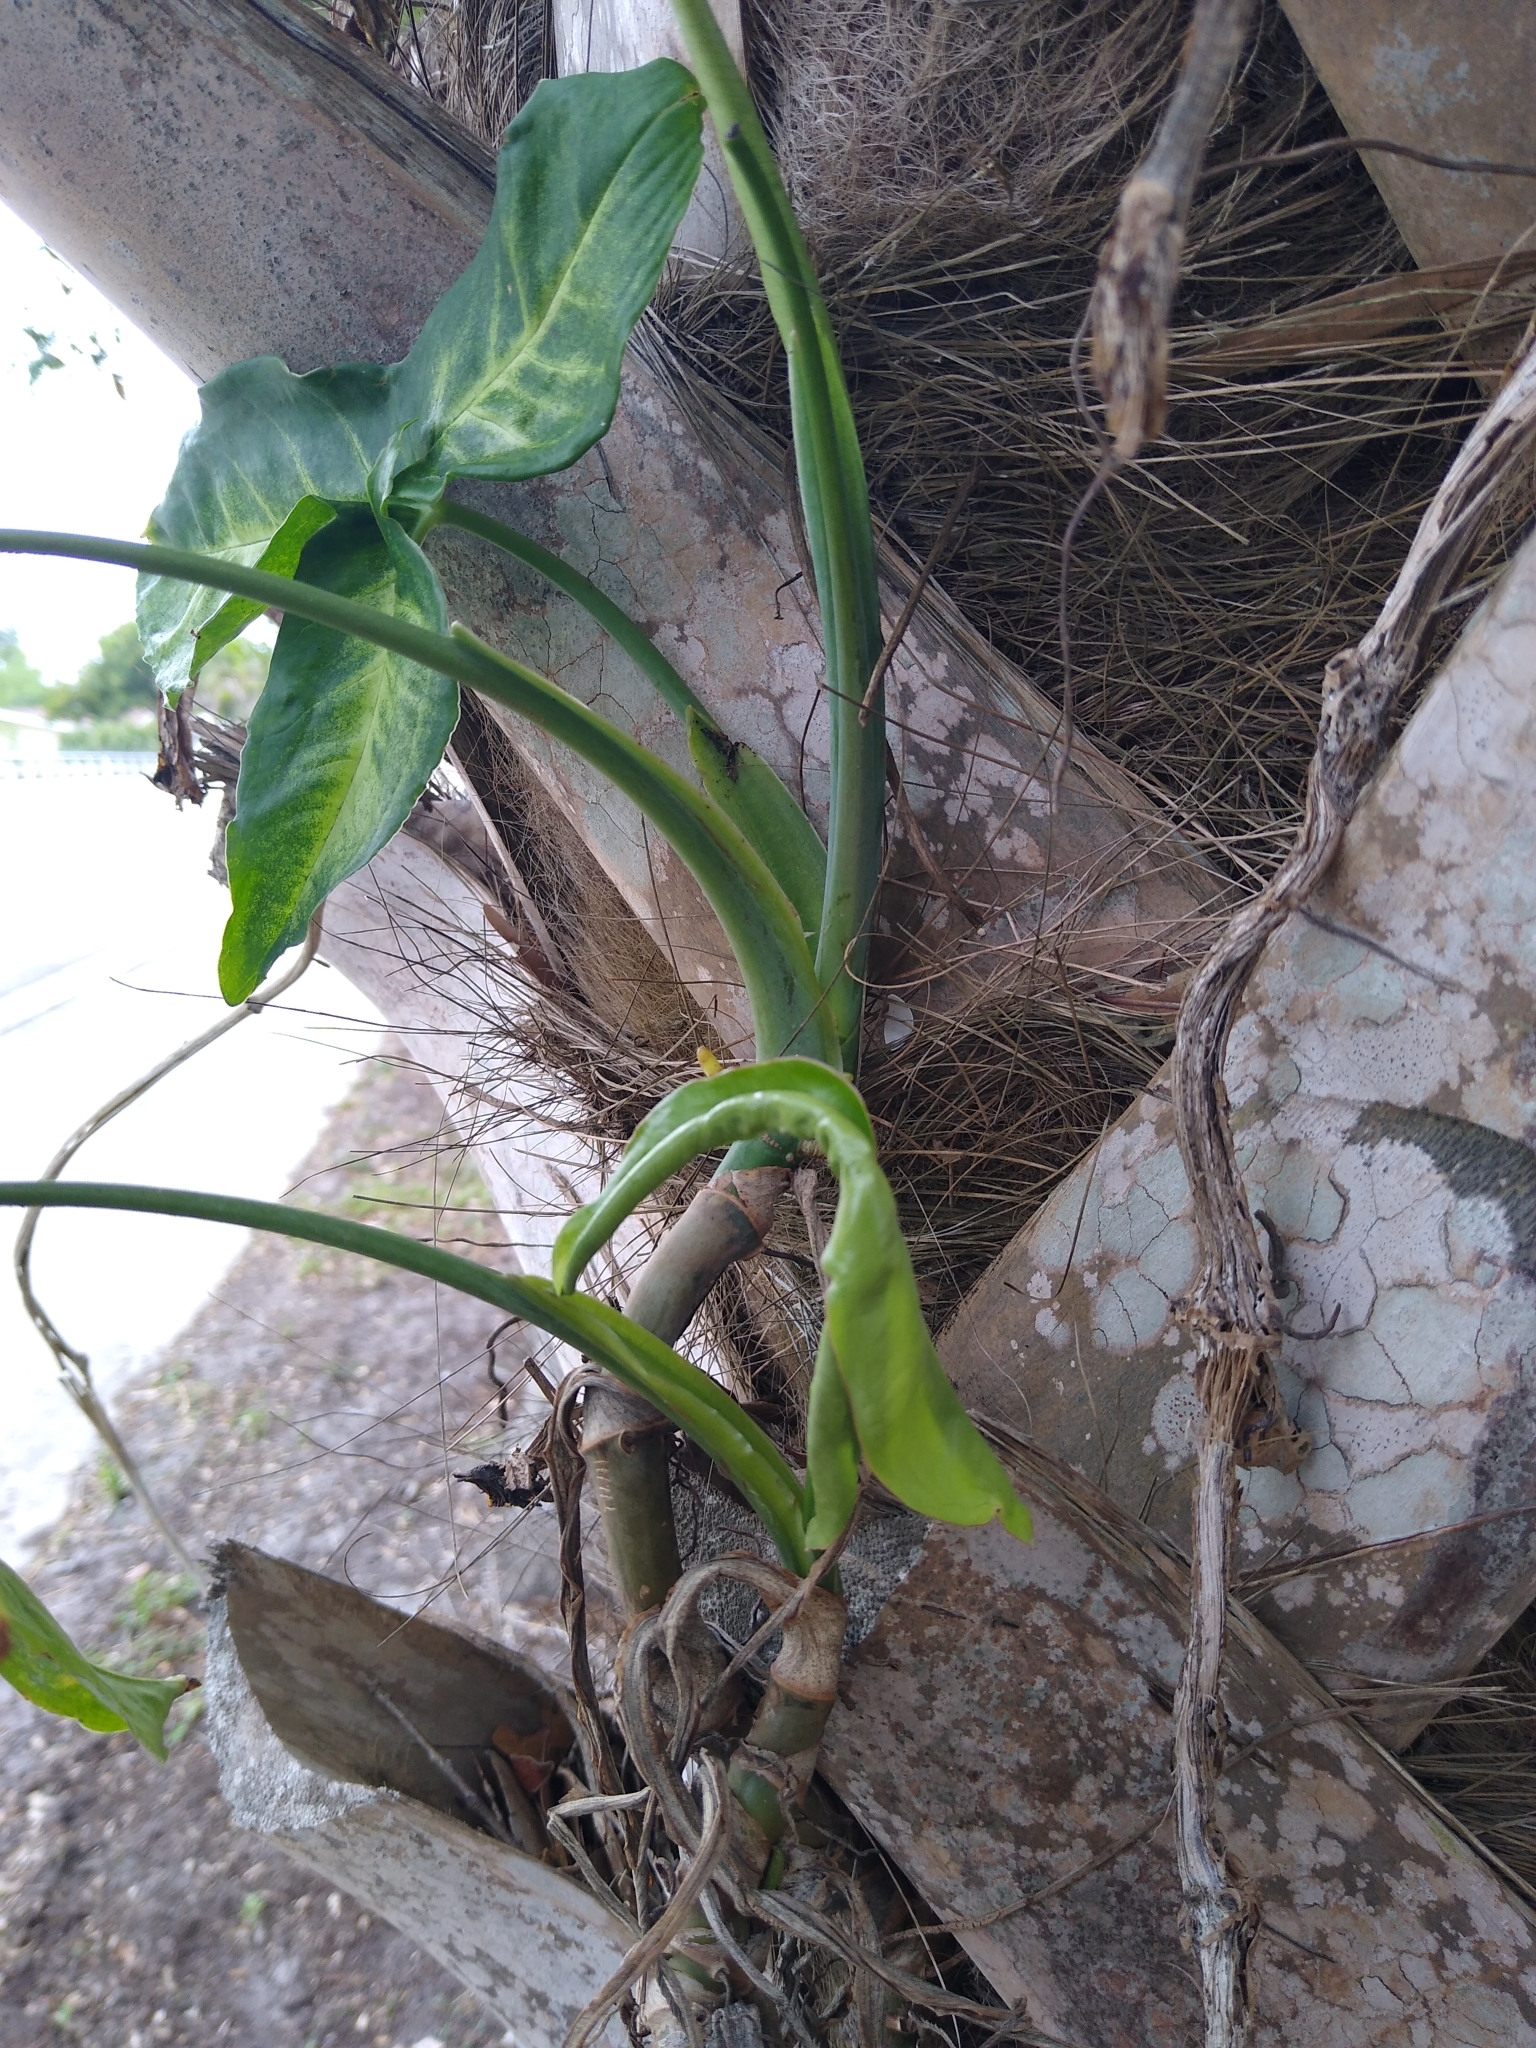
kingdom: Plantae
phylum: Tracheophyta
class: Liliopsida
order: Alismatales
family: Araceae
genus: Syngonium
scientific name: Syngonium podophyllum
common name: American evergreen
